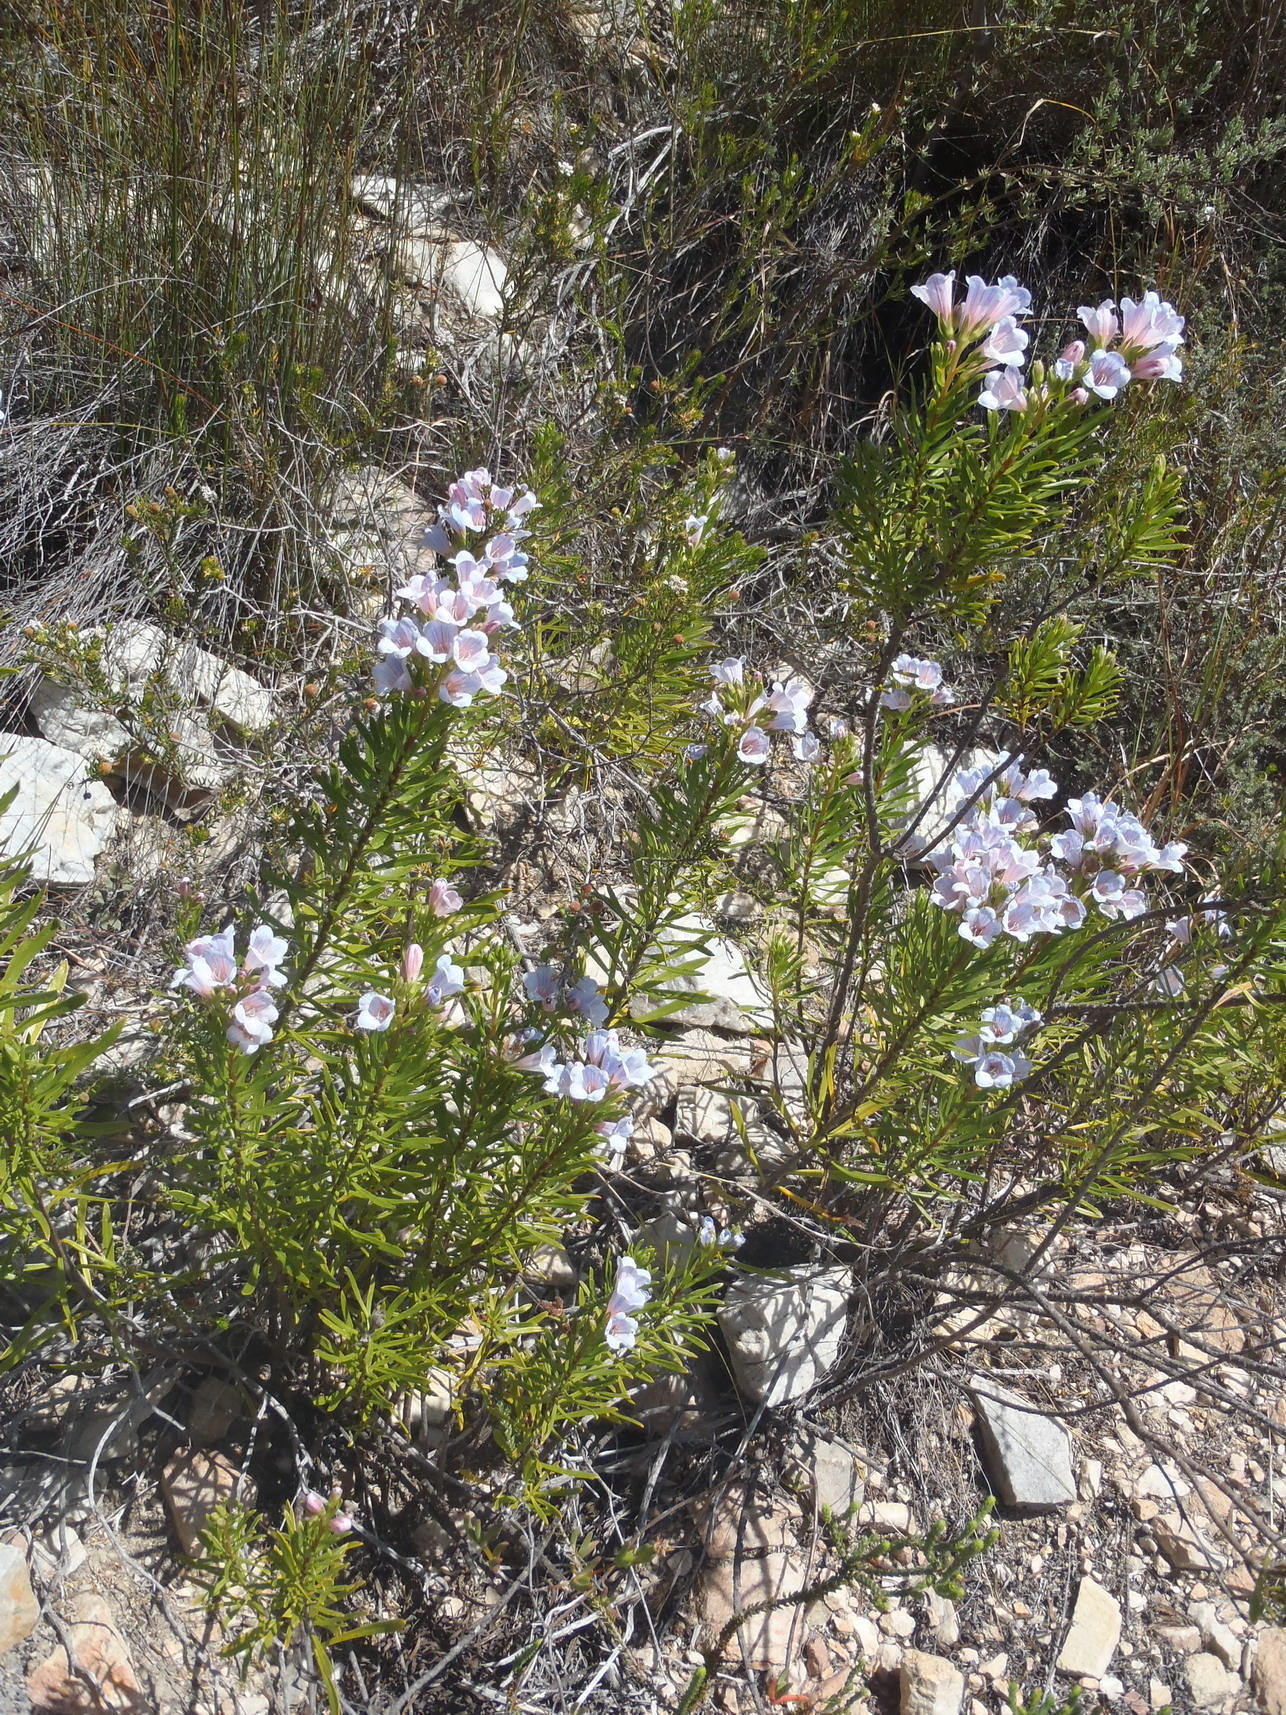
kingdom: Plantae
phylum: Tracheophyta
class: Magnoliopsida
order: Boraginales
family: Boraginaceae
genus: Lobostemon
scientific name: Lobostemon fruticosus
